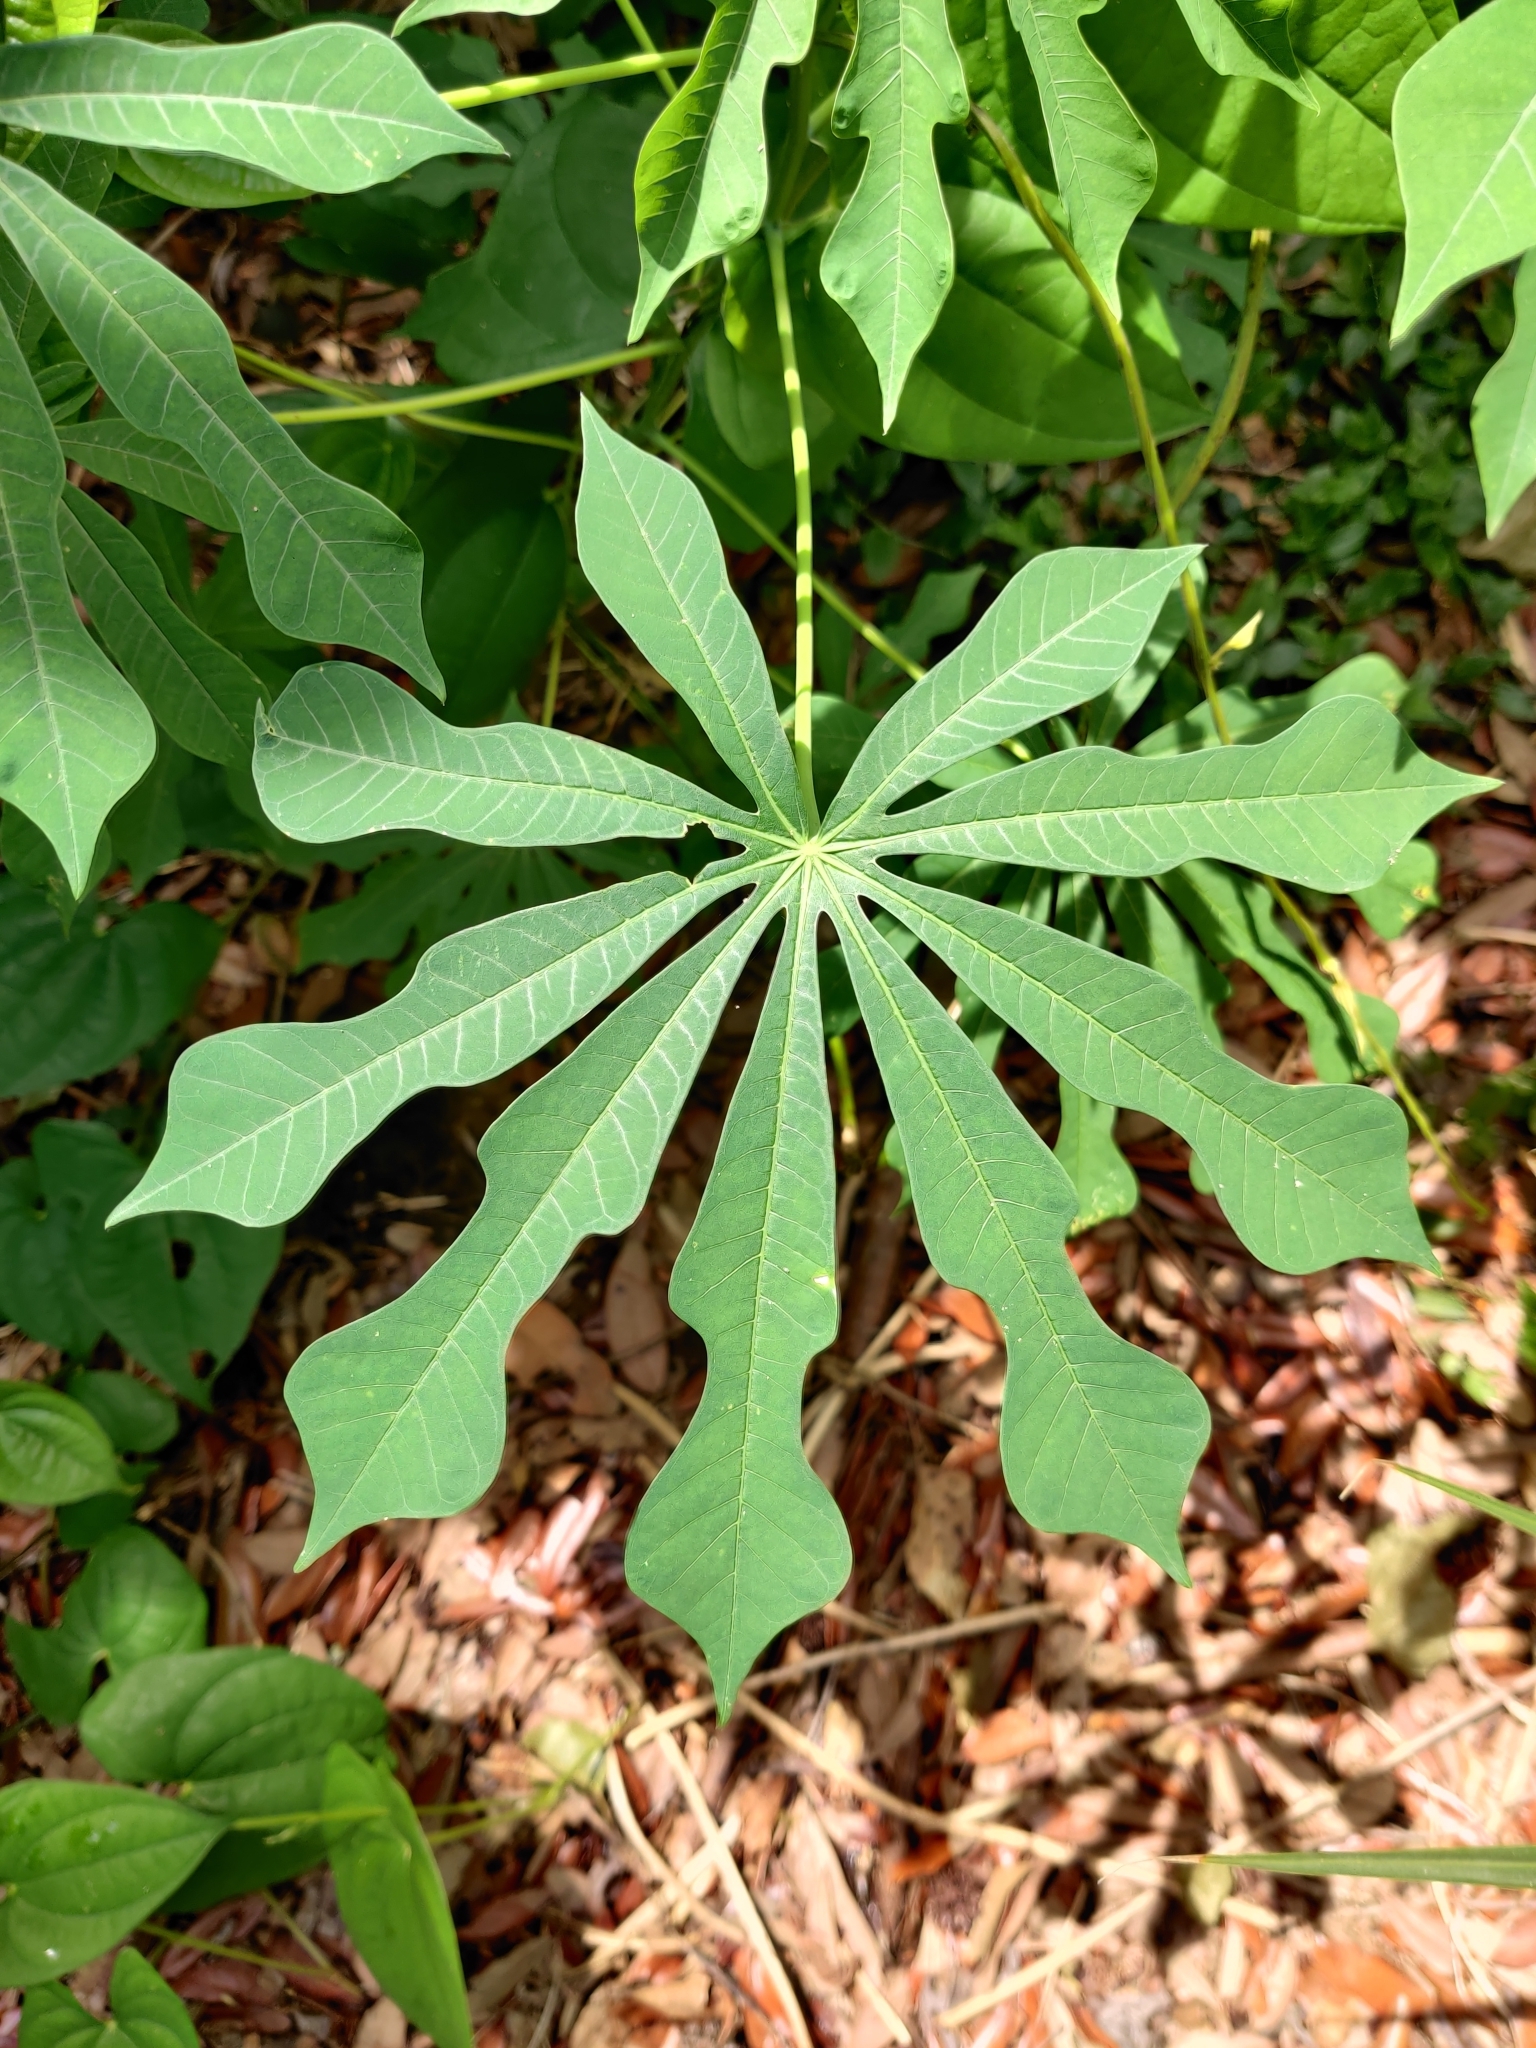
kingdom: Plantae
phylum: Tracheophyta
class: Magnoliopsida
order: Malpighiales
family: Euphorbiaceae
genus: Manihot
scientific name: Manihot grahamii
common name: Graham's manihot
